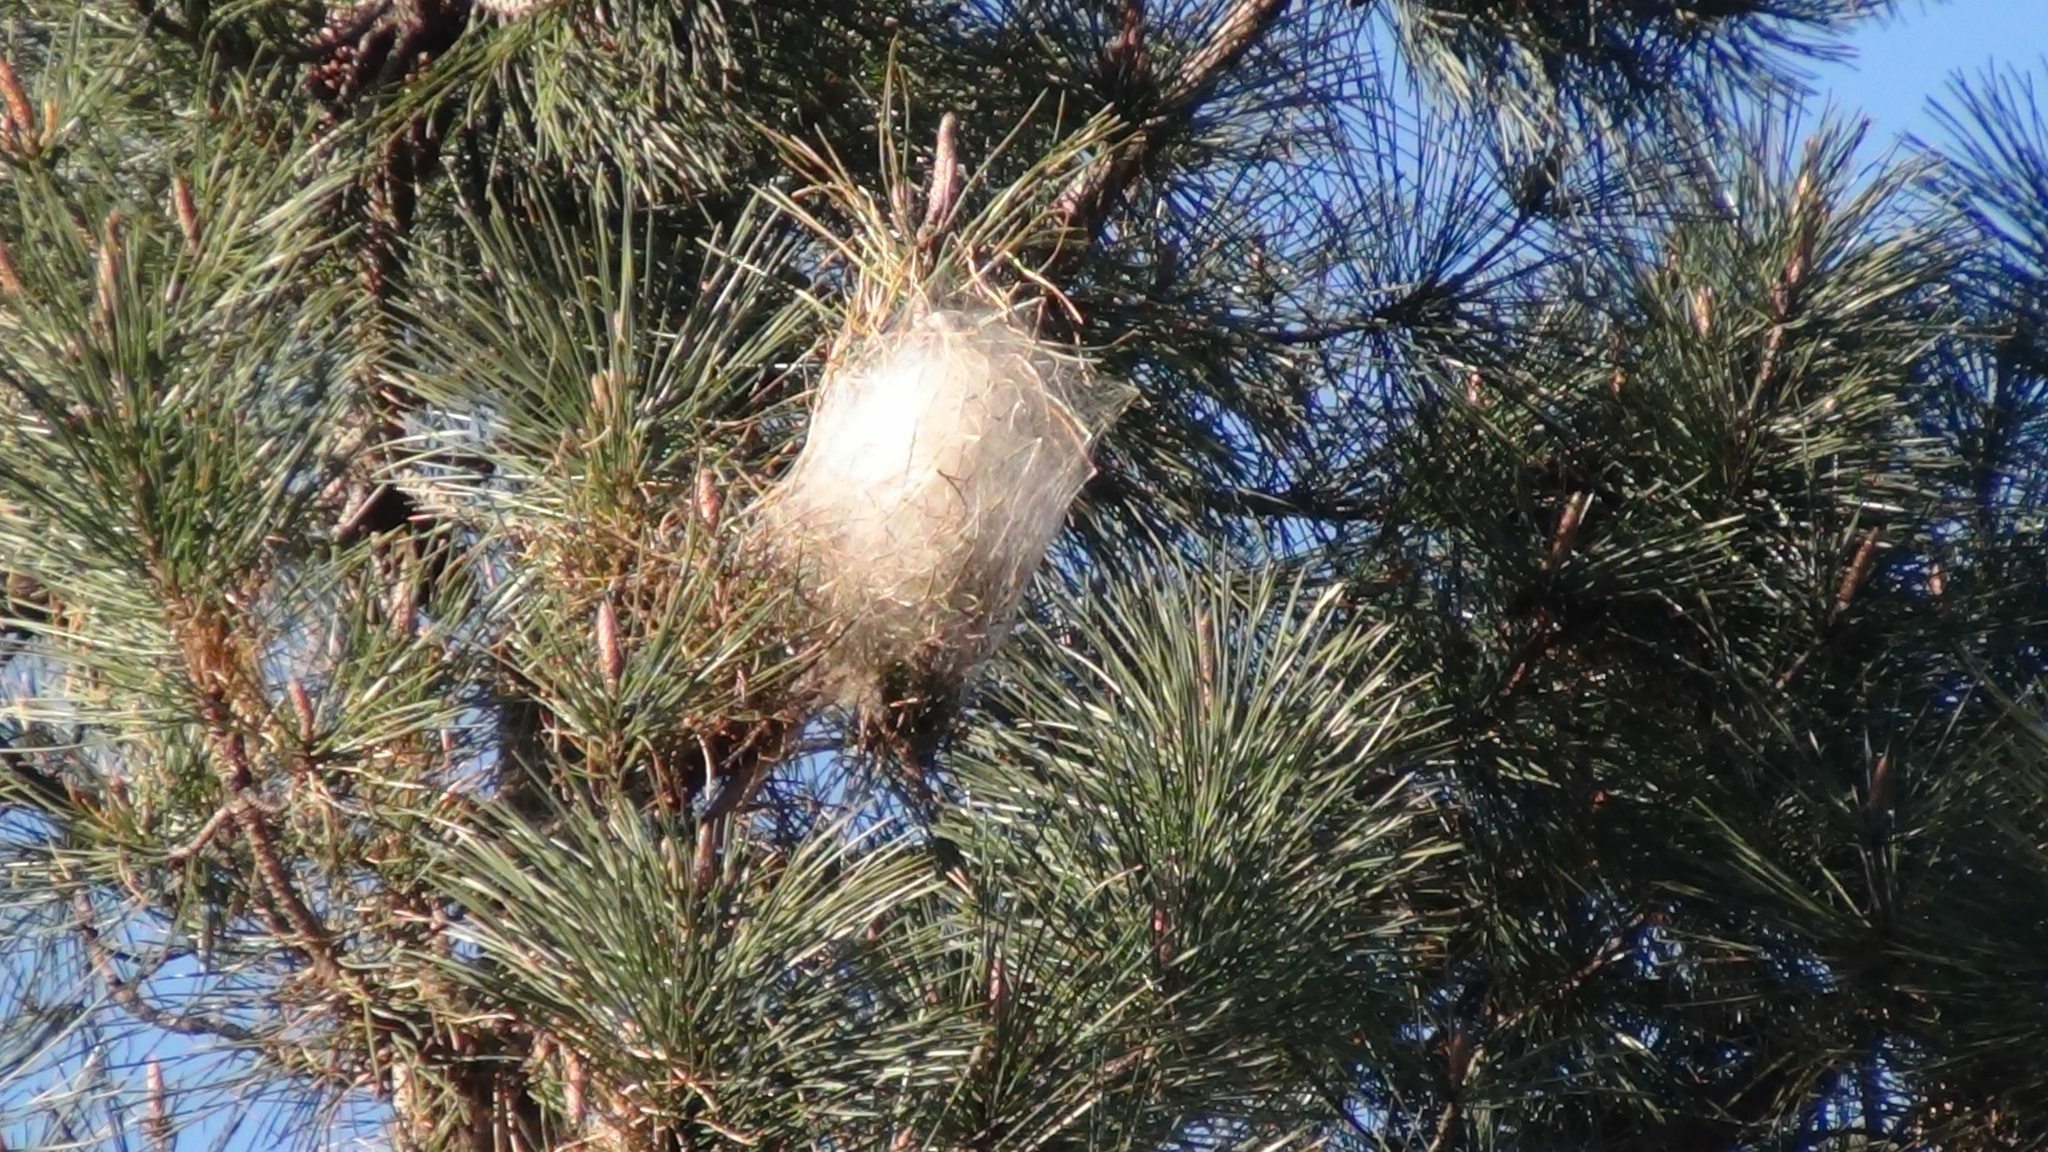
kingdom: Animalia
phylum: Arthropoda
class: Insecta
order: Lepidoptera
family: Notodontidae
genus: Thaumetopoea
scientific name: Thaumetopoea pityocampa
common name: Pine processionary
